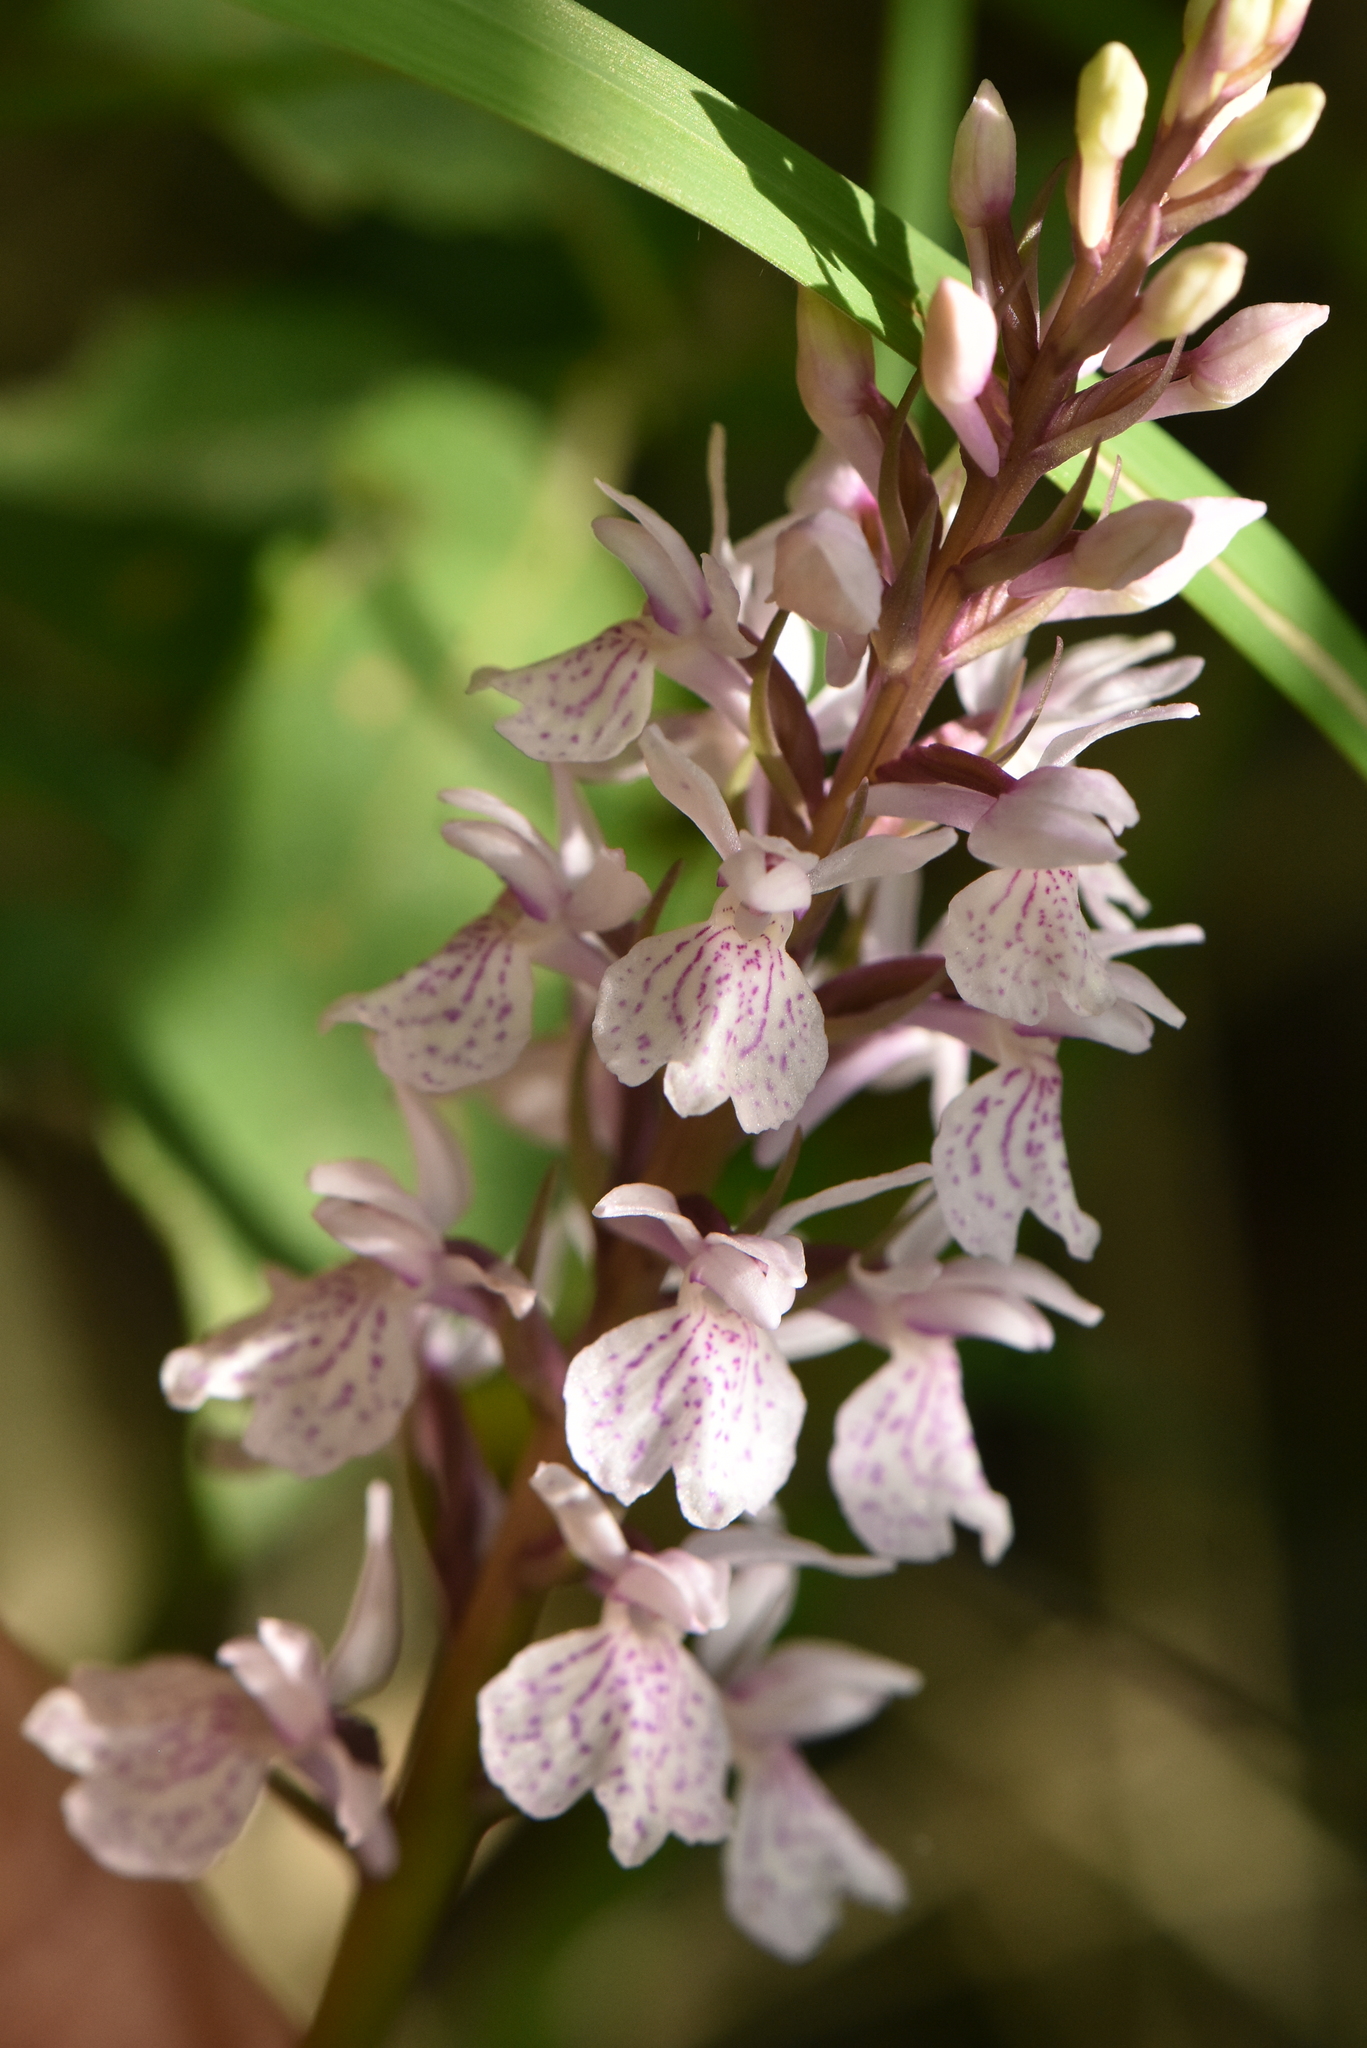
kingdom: Plantae
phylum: Tracheophyta
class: Liliopsida
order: Asparagales
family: Orchidaceae
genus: Dactylorhiza
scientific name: Dactylorhiza maculata
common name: Heath spotted-orchid
